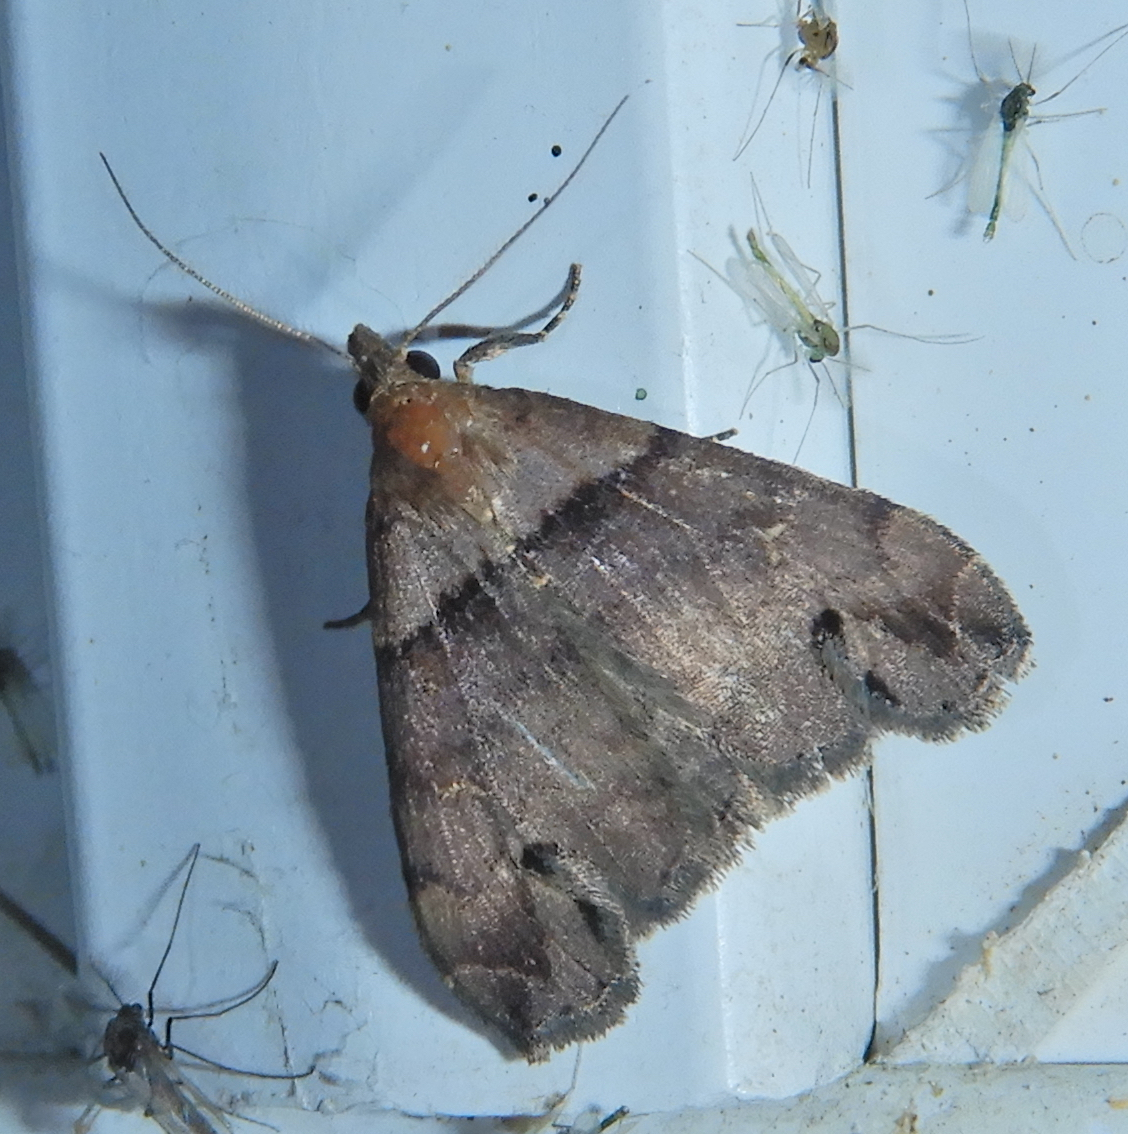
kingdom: Animalia
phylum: Arthropoda
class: Insecta
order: Lepidoptera
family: Erebidae
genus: Lascoria
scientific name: Lascoria ambigualis
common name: Ambiguous moth
